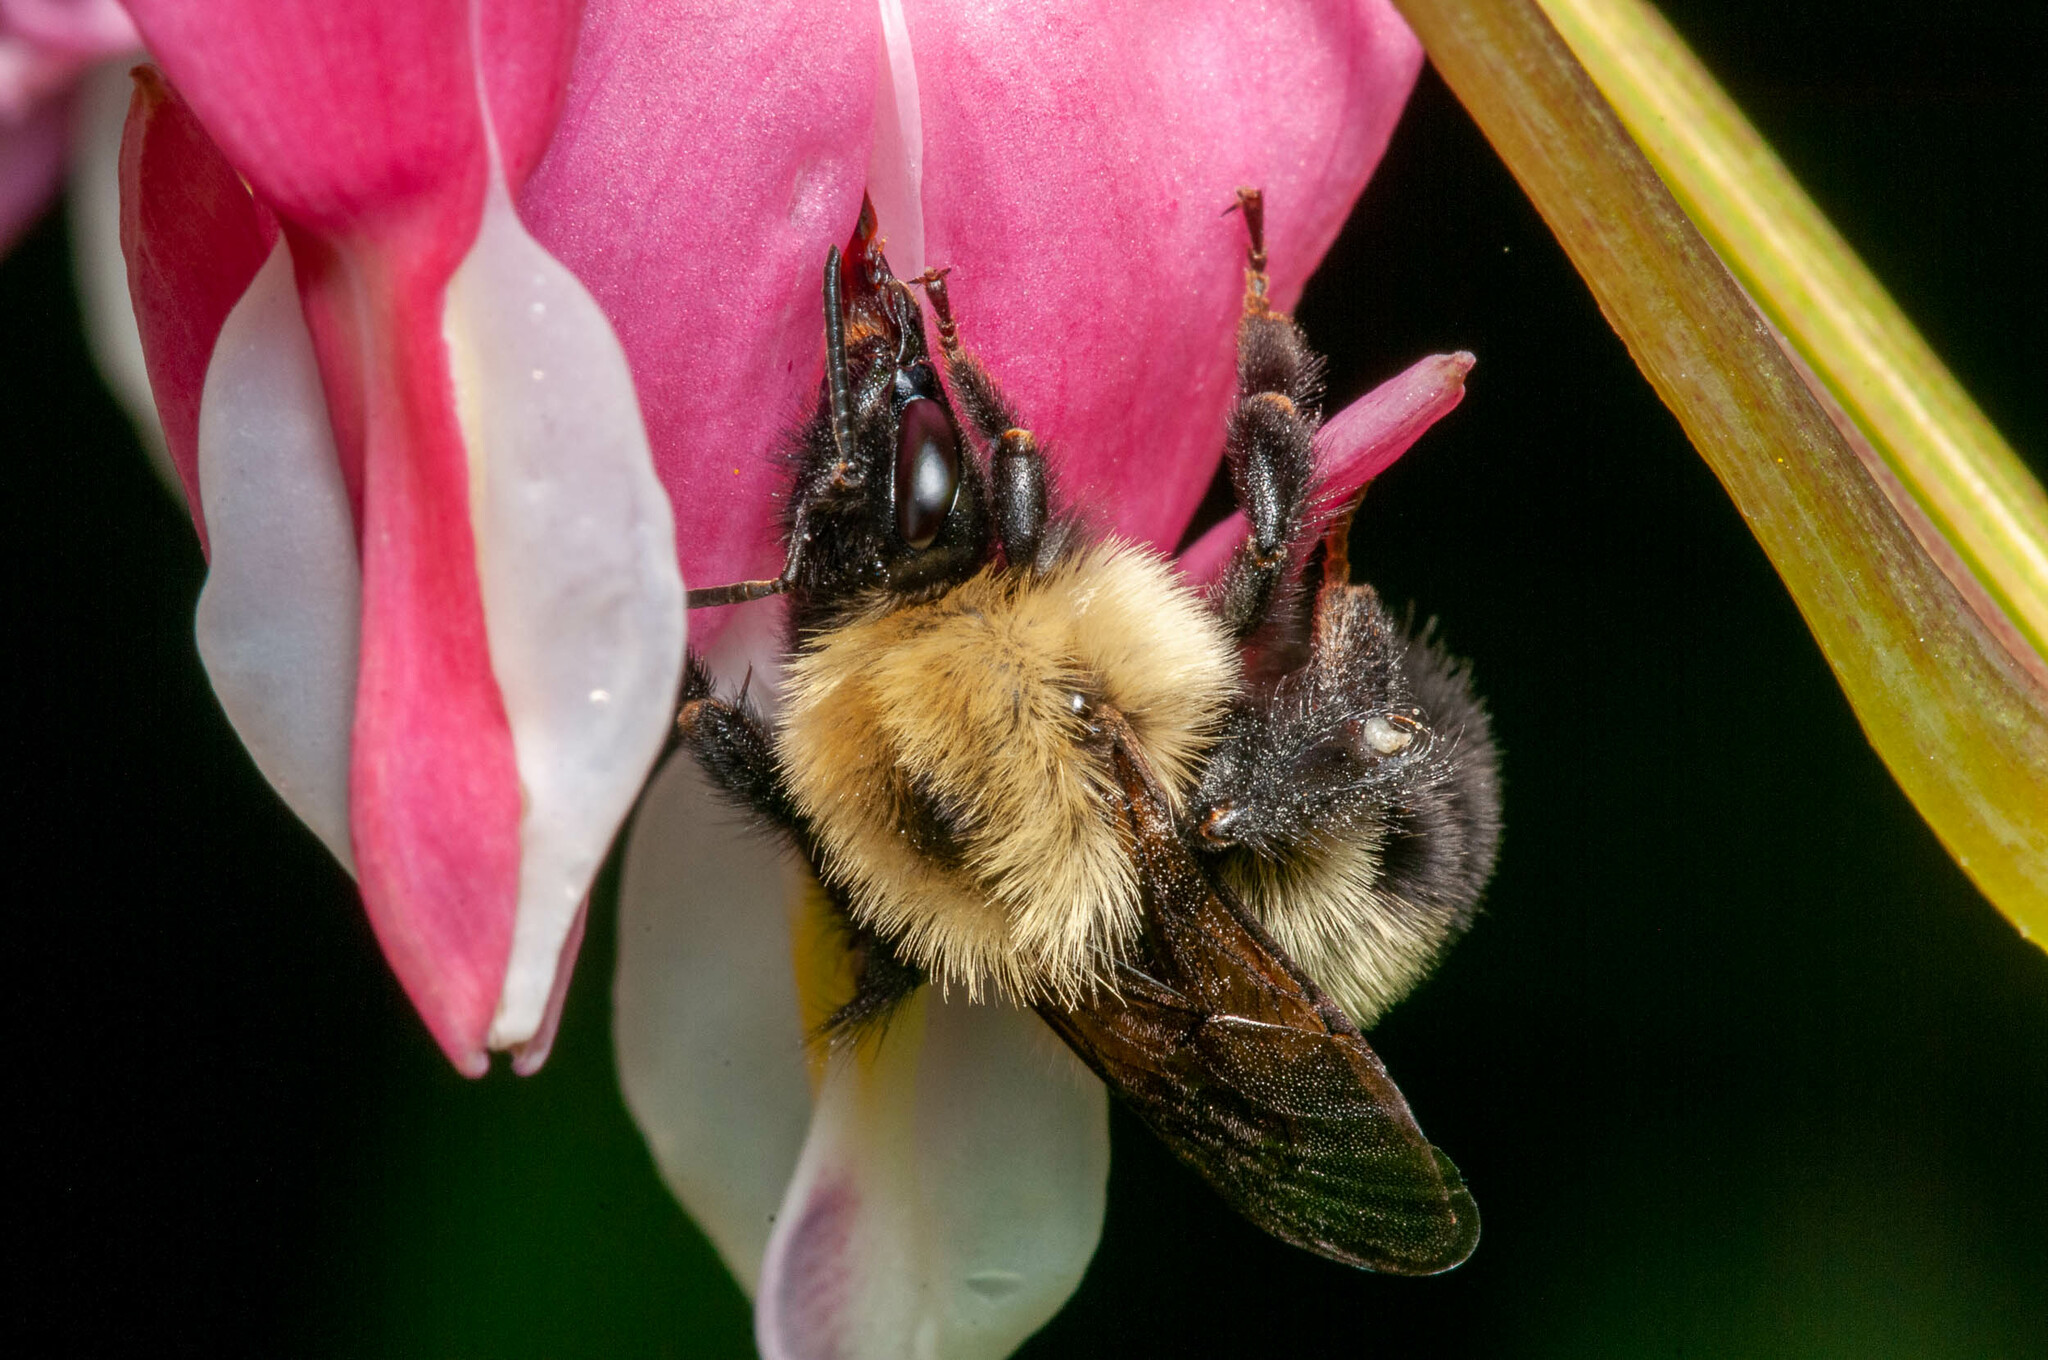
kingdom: Animalia
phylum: Arthropoda
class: Insecta
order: Hymenoptera
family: Apidae
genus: Bombus
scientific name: Bombus bimaculatus
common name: Two-spotted bumble bee
